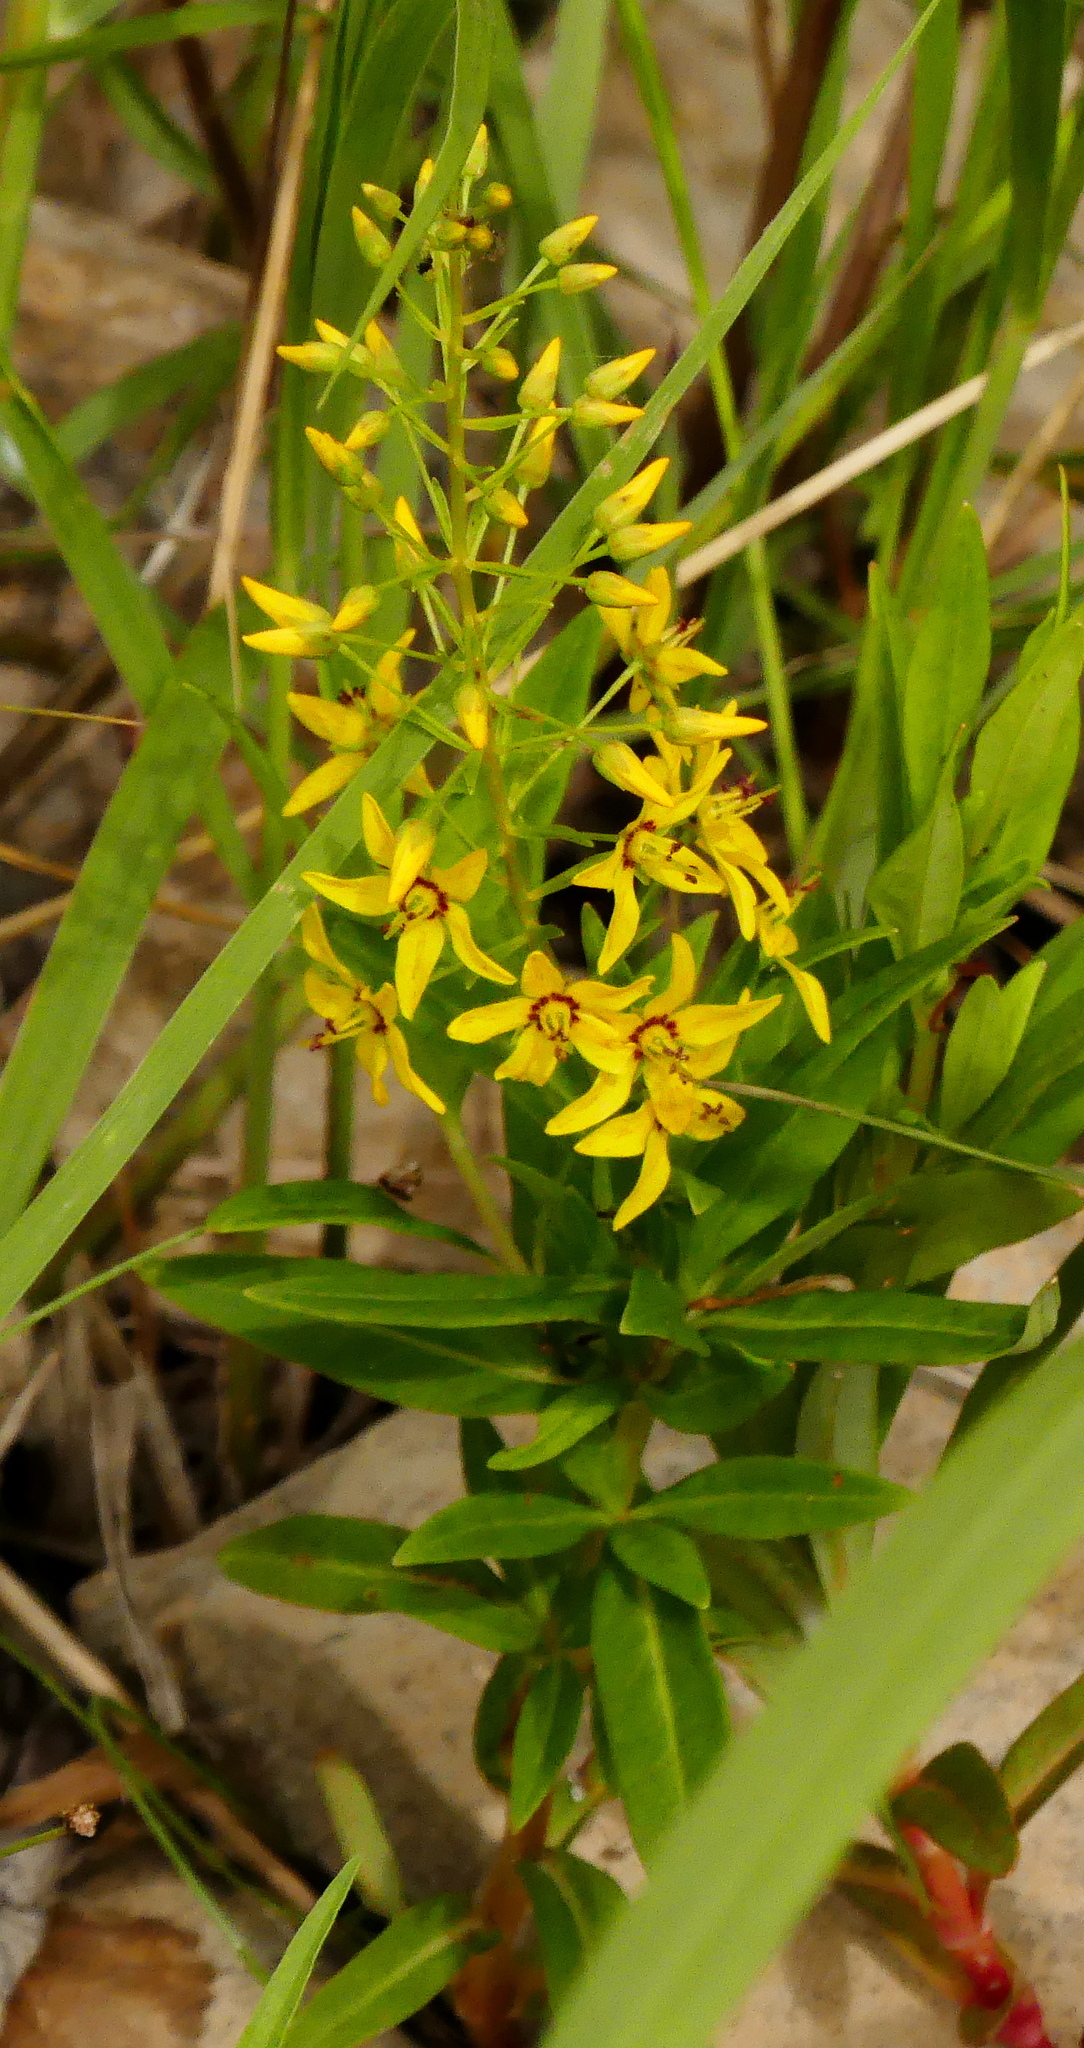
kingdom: Plantae
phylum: Tracheophyta
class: Magnoliopsida
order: Ericales
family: Primulaceae
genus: Lysimachia
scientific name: Lysimachia terrestris
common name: Lake loosestrife
